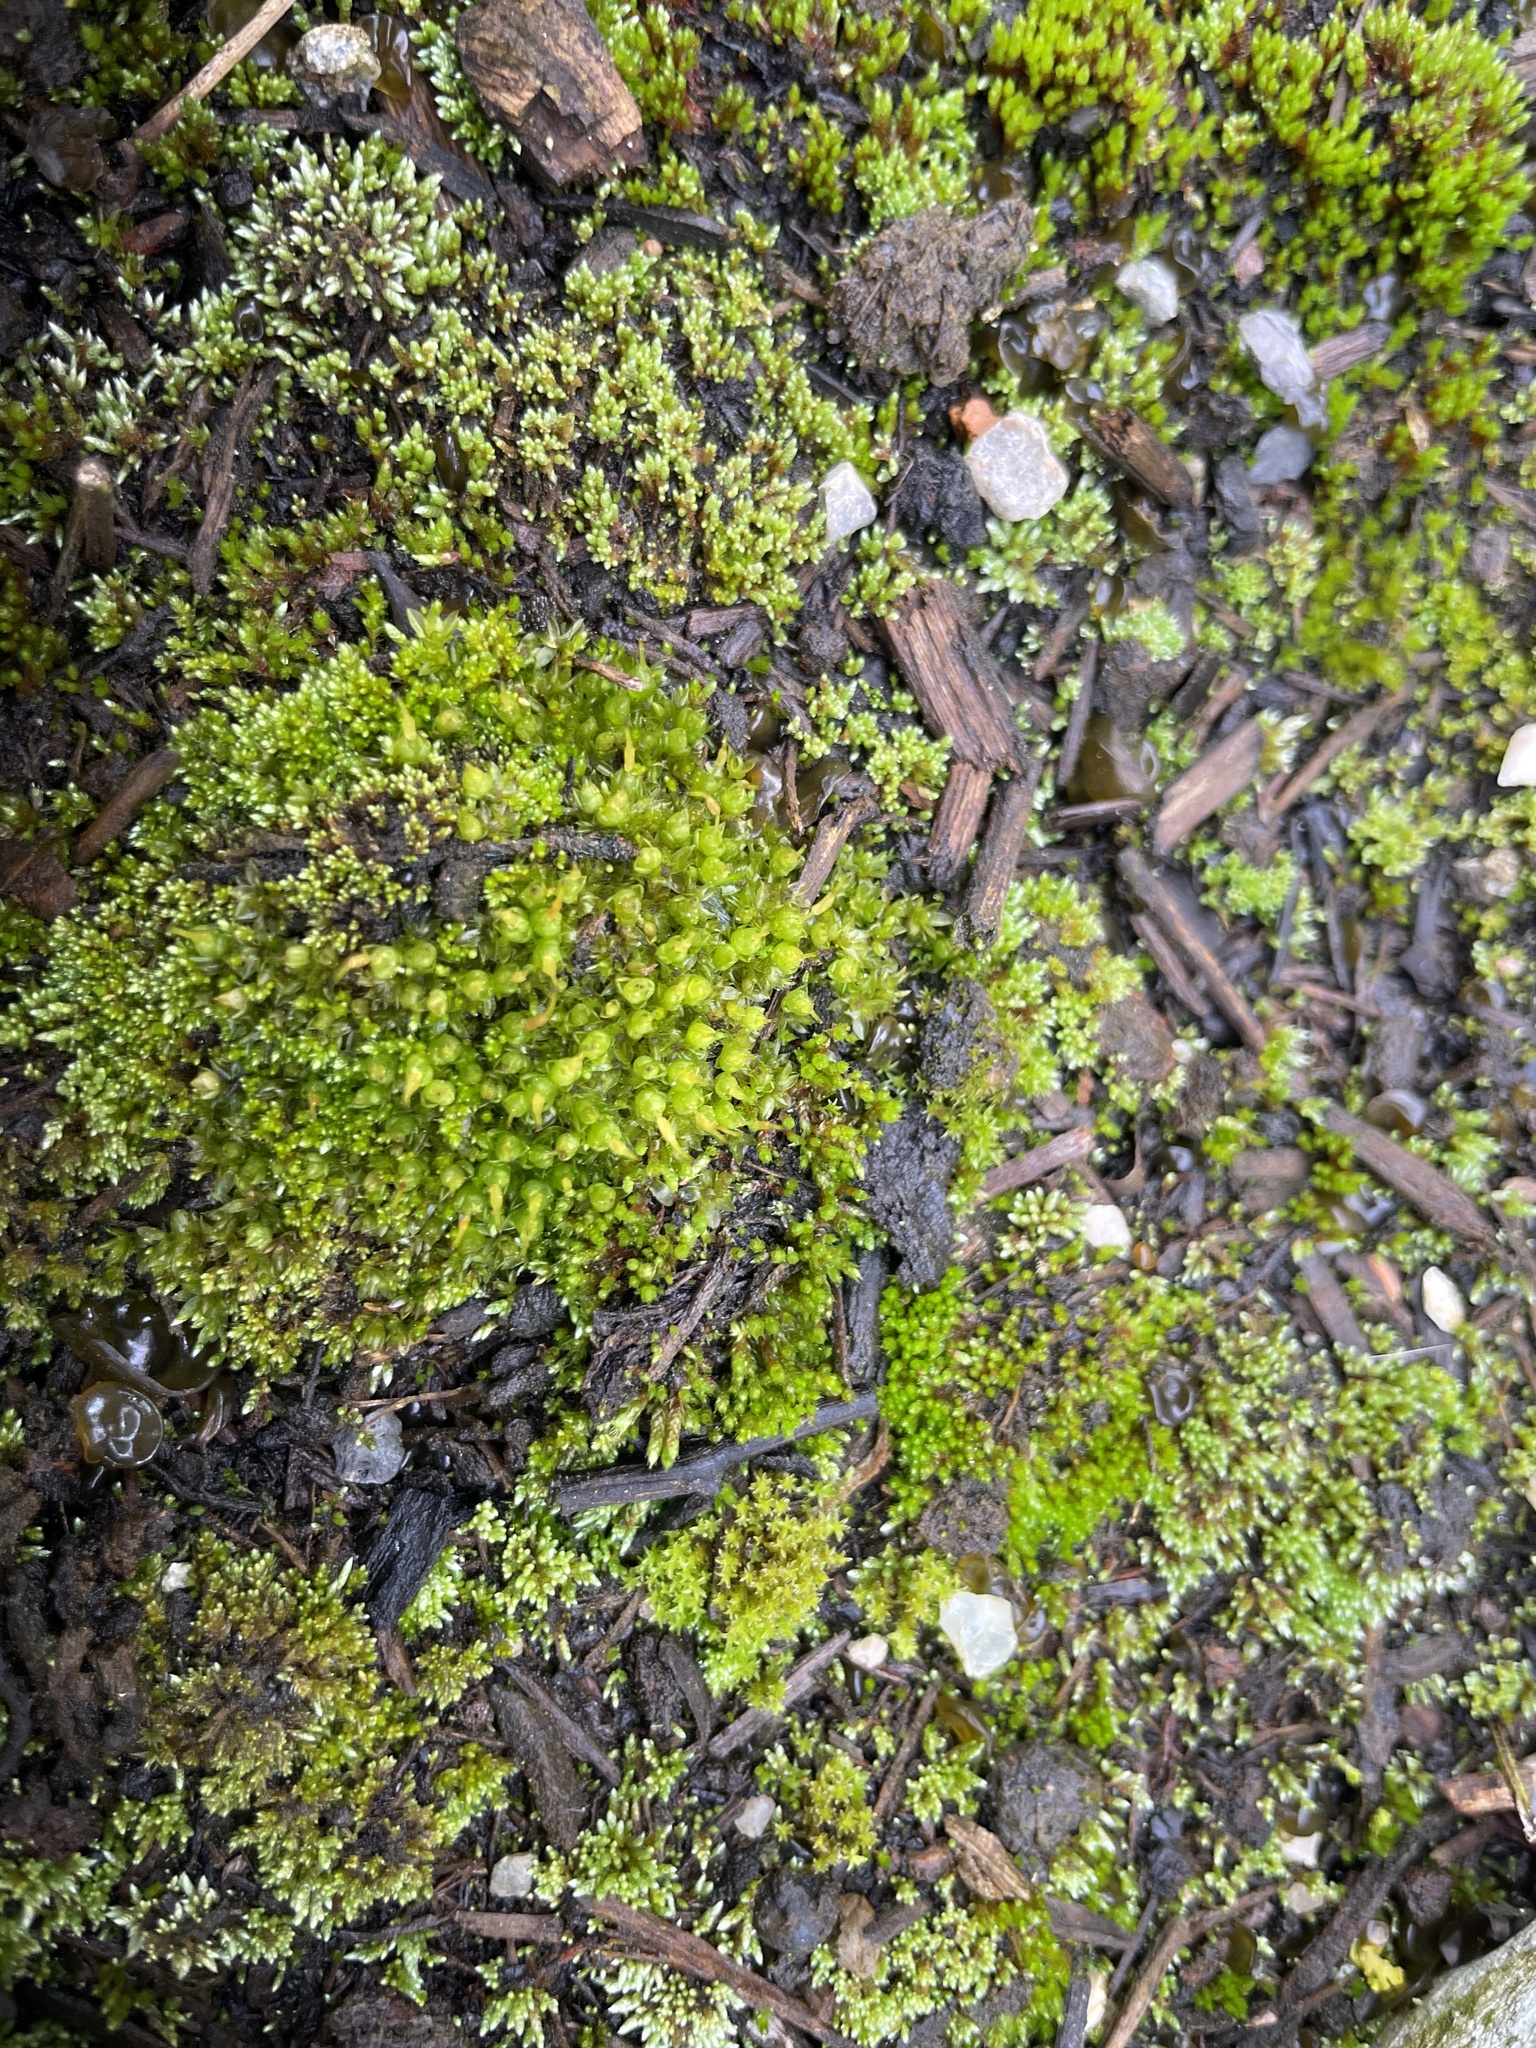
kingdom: Plantae
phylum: Bryophyta
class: Bryopsida
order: Funariales
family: Funariaceae
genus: Funaria
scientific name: Funaria hygrometrica
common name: Common cord moss
